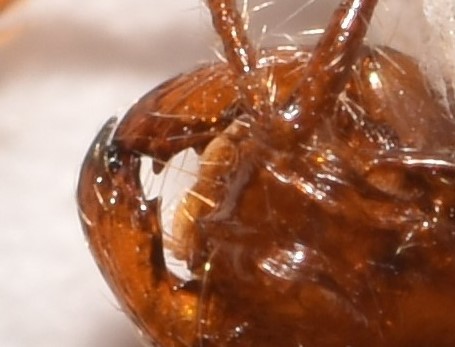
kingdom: Animalia
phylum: Arthropoda
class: Insecta
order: Hymenoptera
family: Formicidae
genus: Solenopsis
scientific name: Solenopsis invicta
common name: Red imported fire ant
